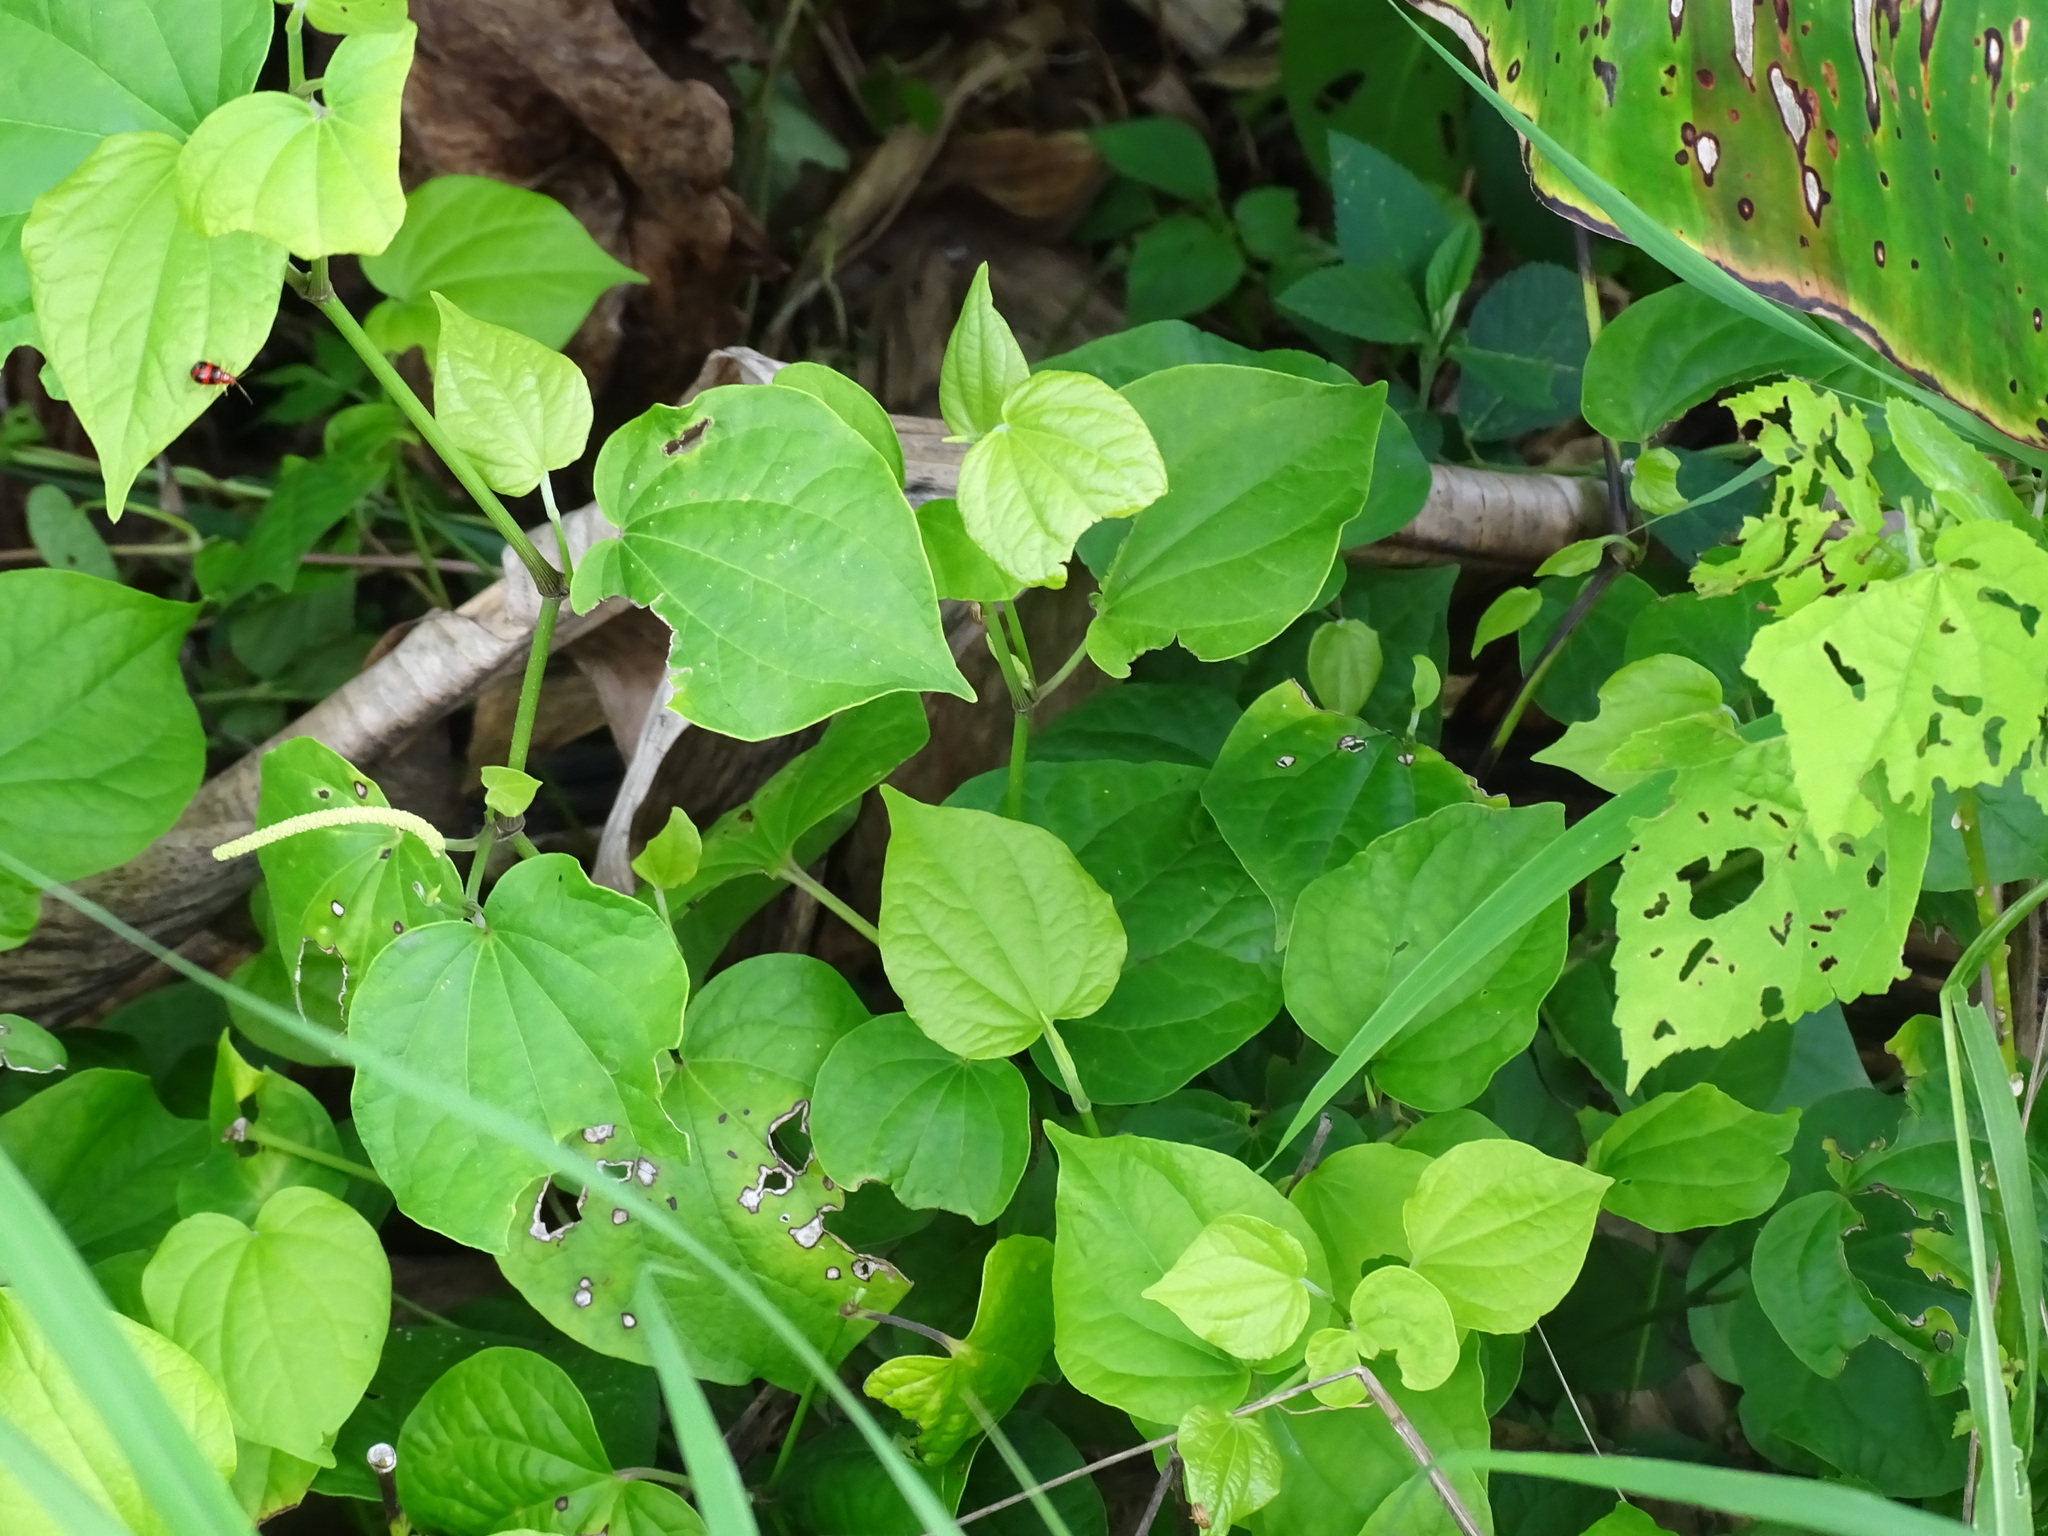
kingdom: Plantae
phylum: Tracheophyta
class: Magnoliopsida
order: Piperales
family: Piperaceae
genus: Piper
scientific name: Piper guazacapanense
